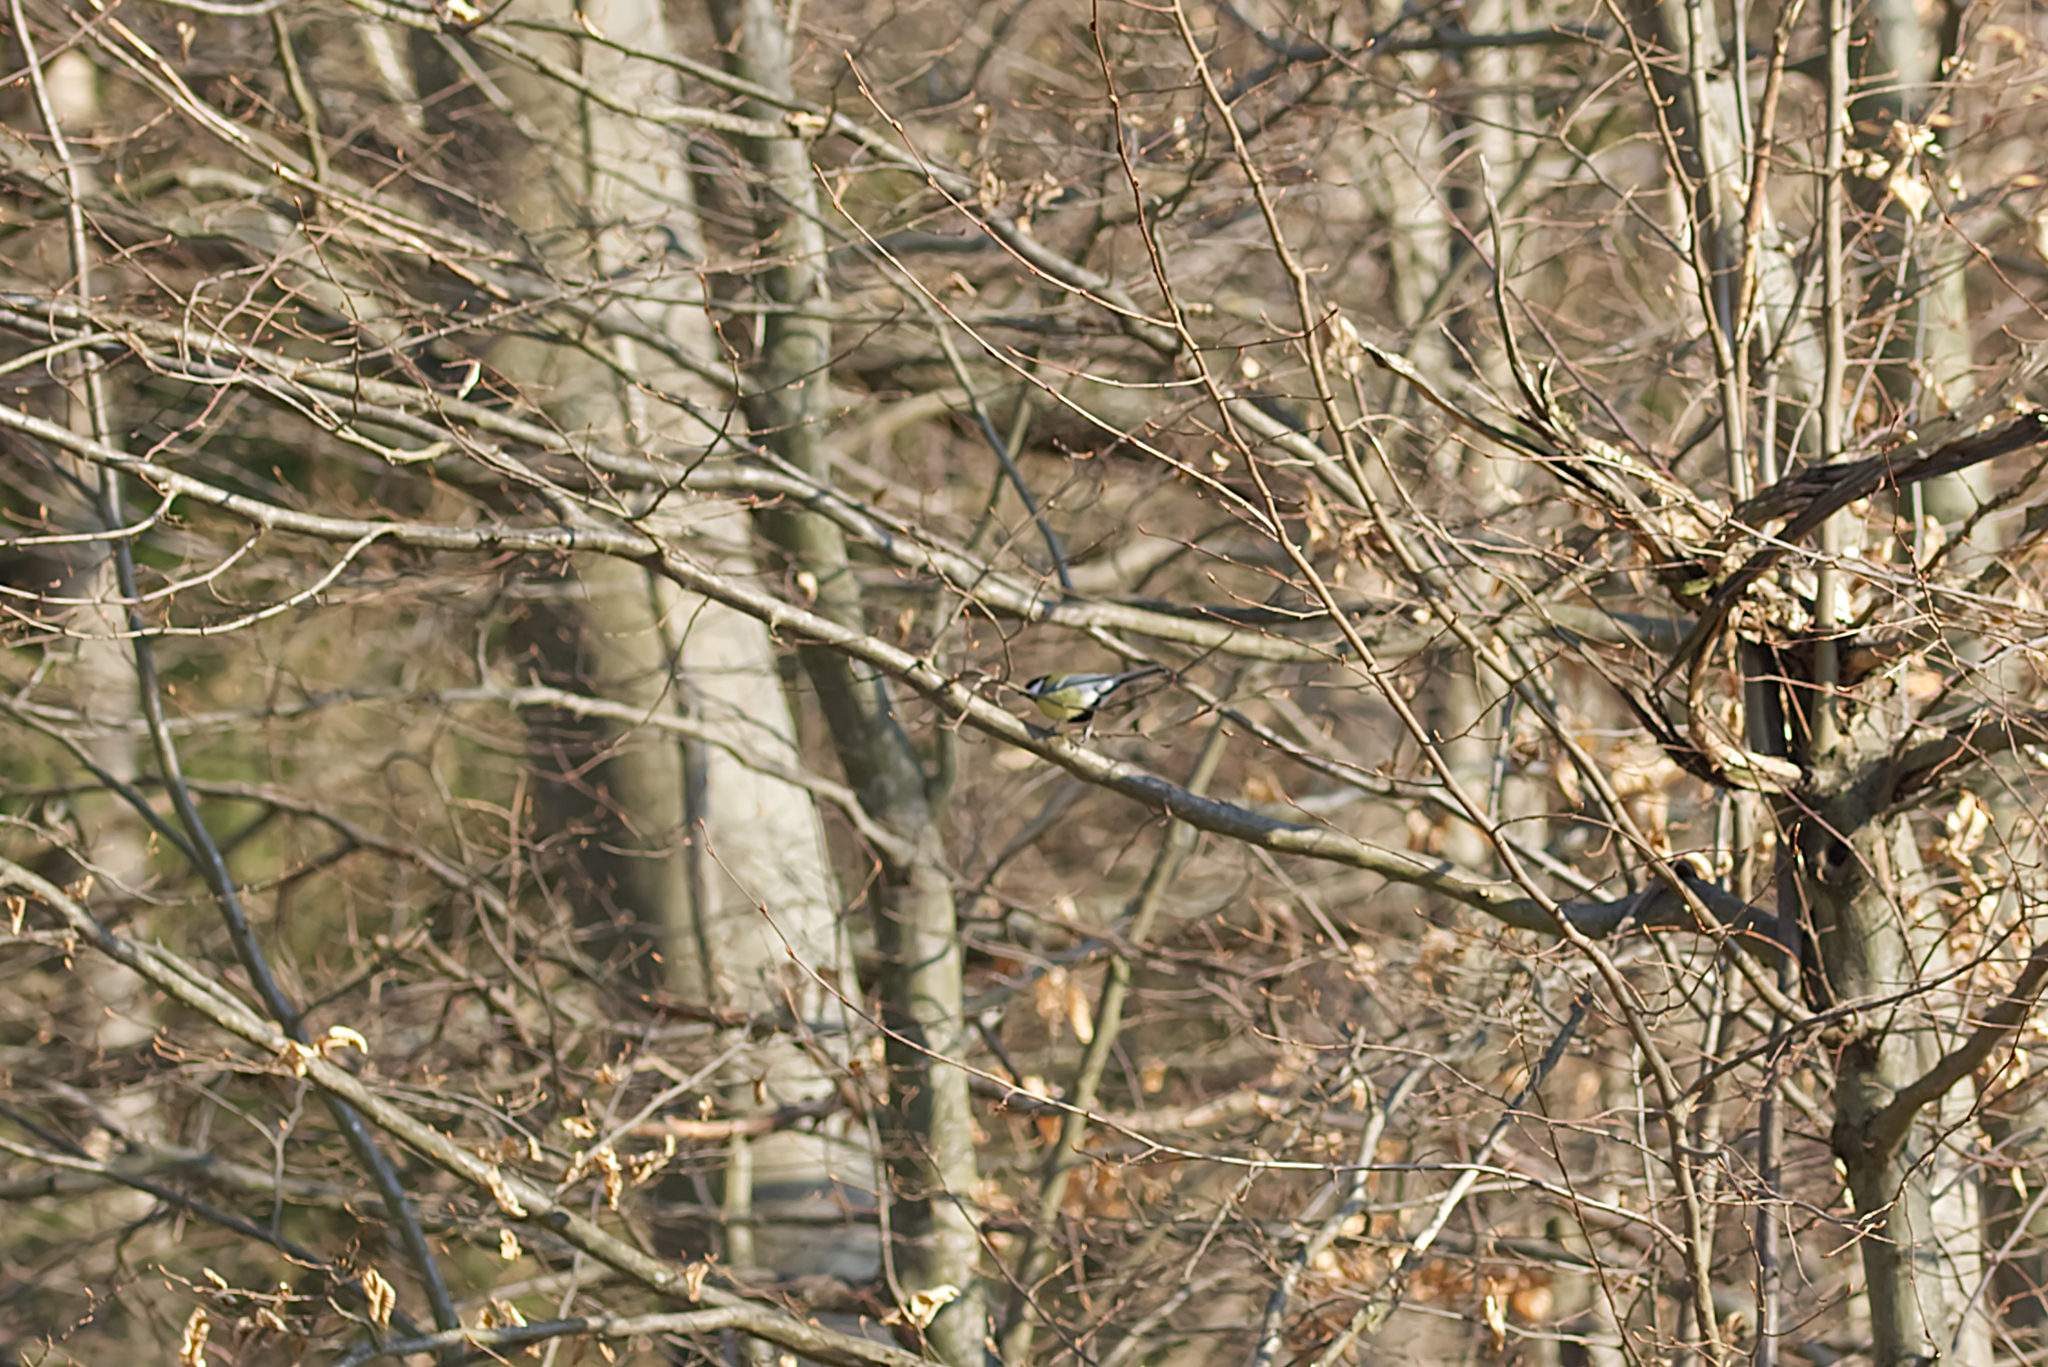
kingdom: Animalia
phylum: Chordata
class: Aves
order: Passeriformes
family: Paridae
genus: Parus
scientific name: Parus major
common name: Great tit
